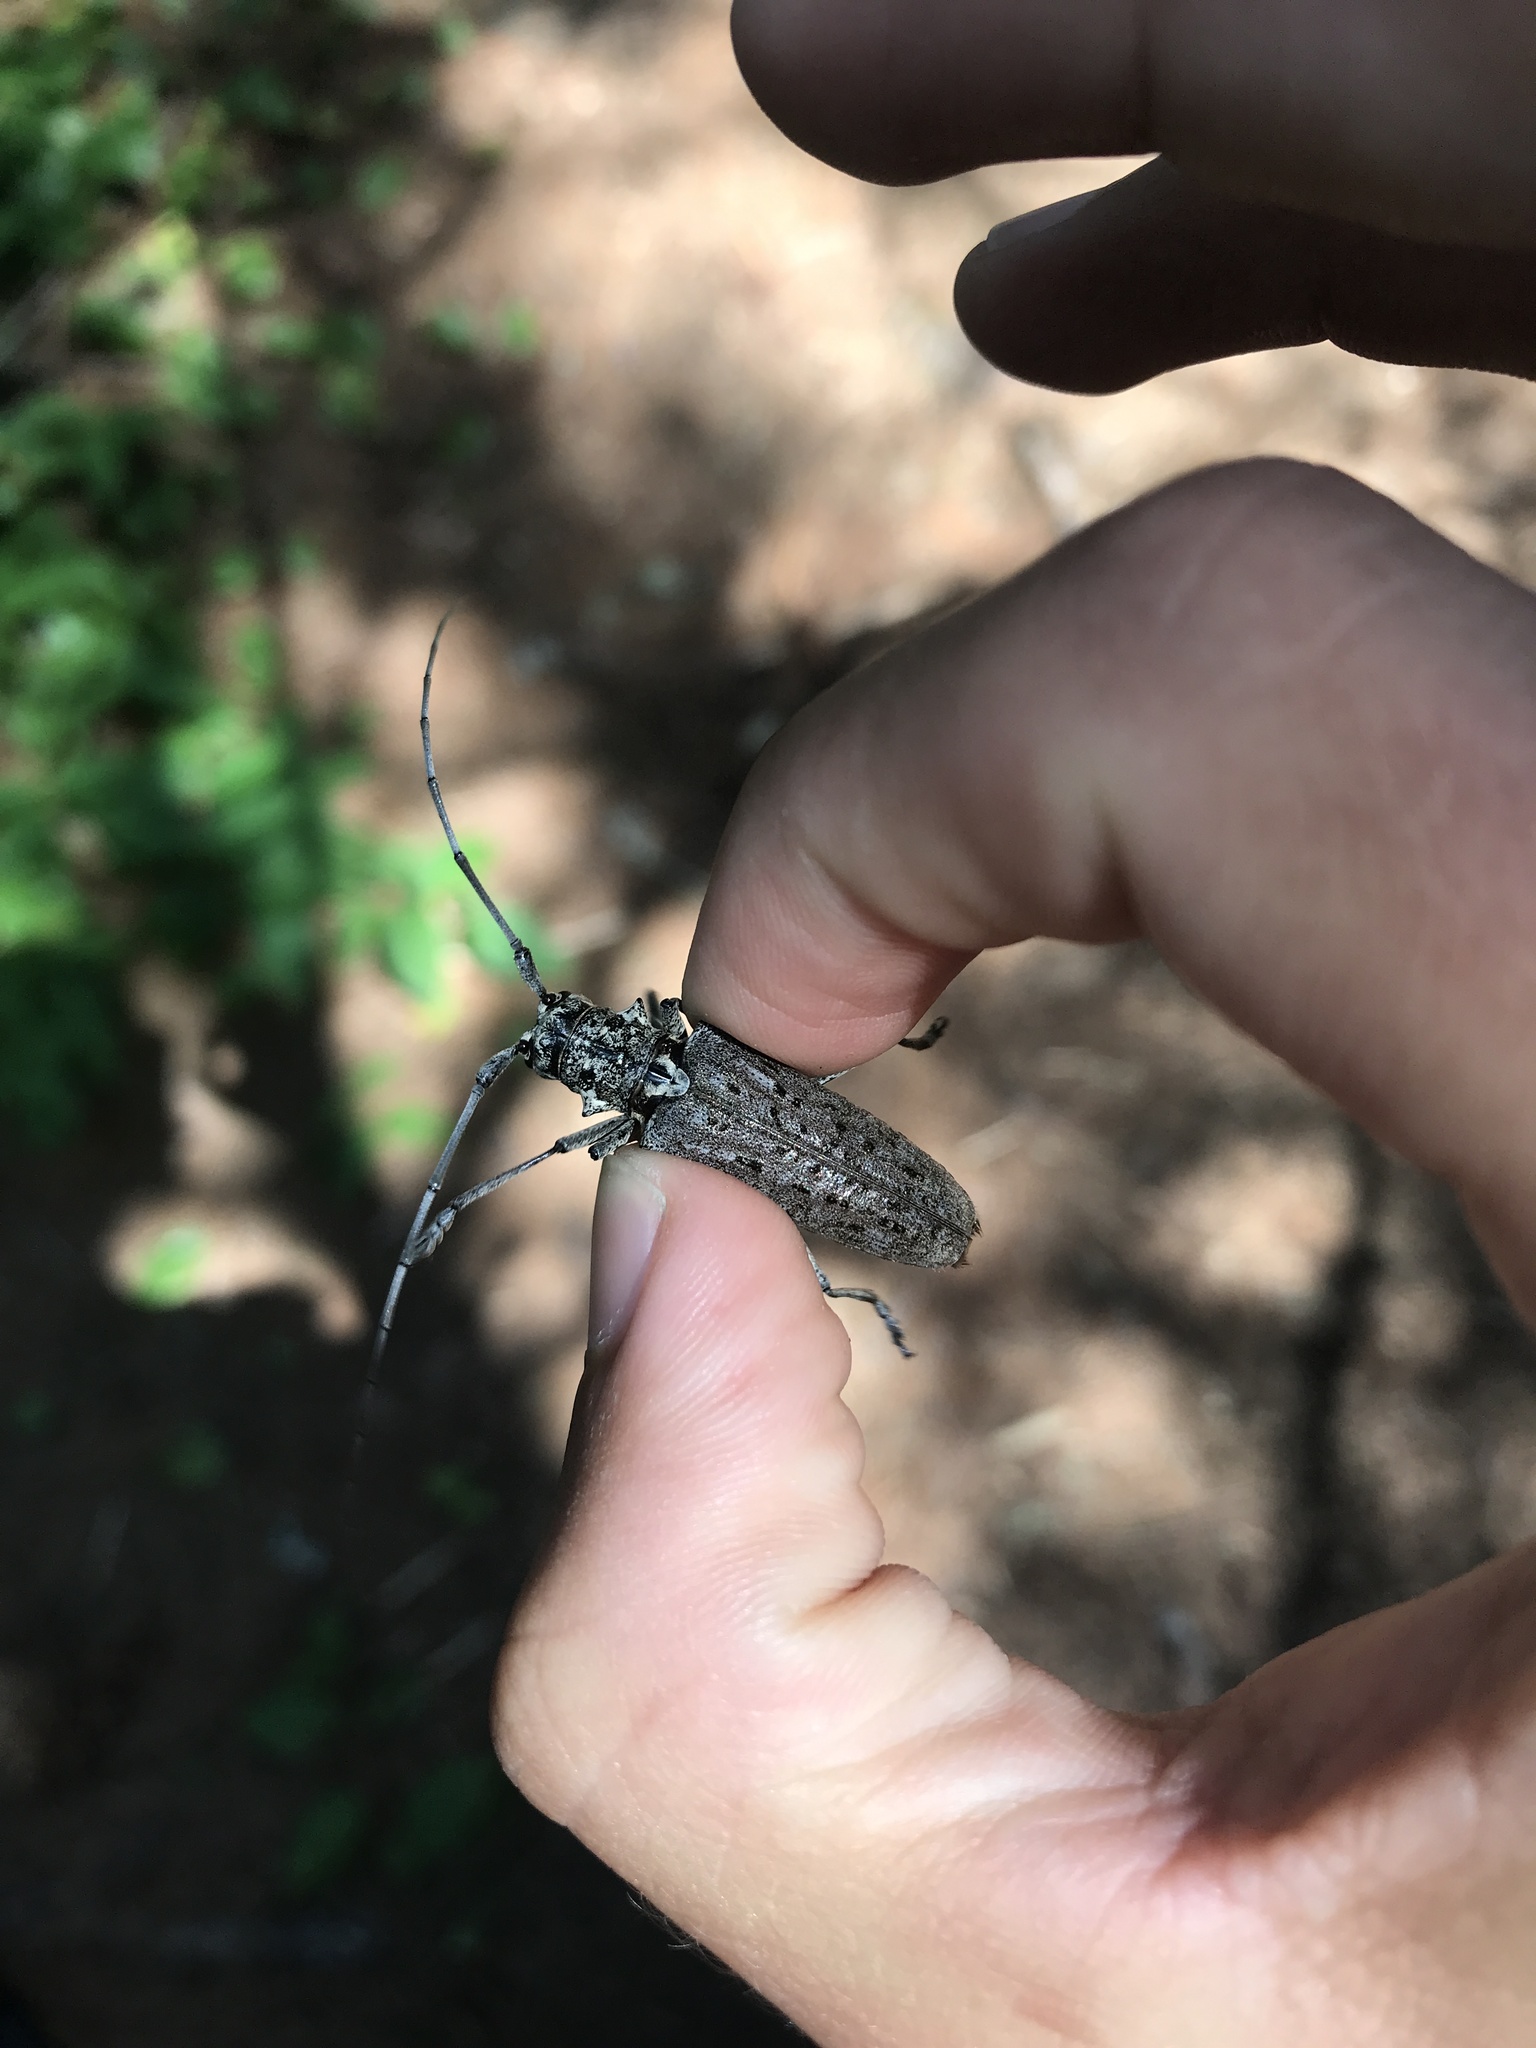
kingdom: Animalia
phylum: Arthropoda
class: Insecta
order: Coleoptera
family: Cerambycidae
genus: Monochamus
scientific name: Monochamus notatus
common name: Northeastern pine sawyer beetle
